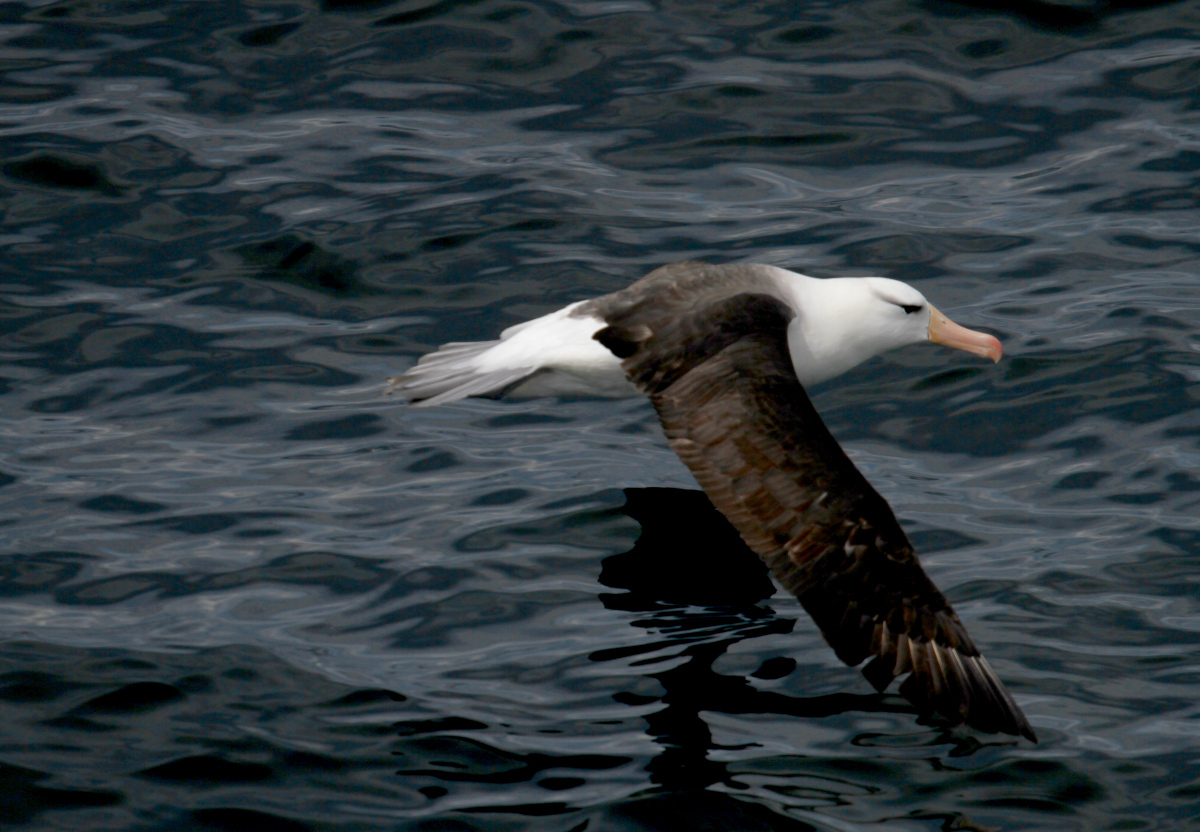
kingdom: Animalia
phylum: Chordata
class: Aves
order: Procellariiformes
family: Diomedeidae
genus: Thalassarche
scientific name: Thalassarche melanophris
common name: Black-browed albatross
